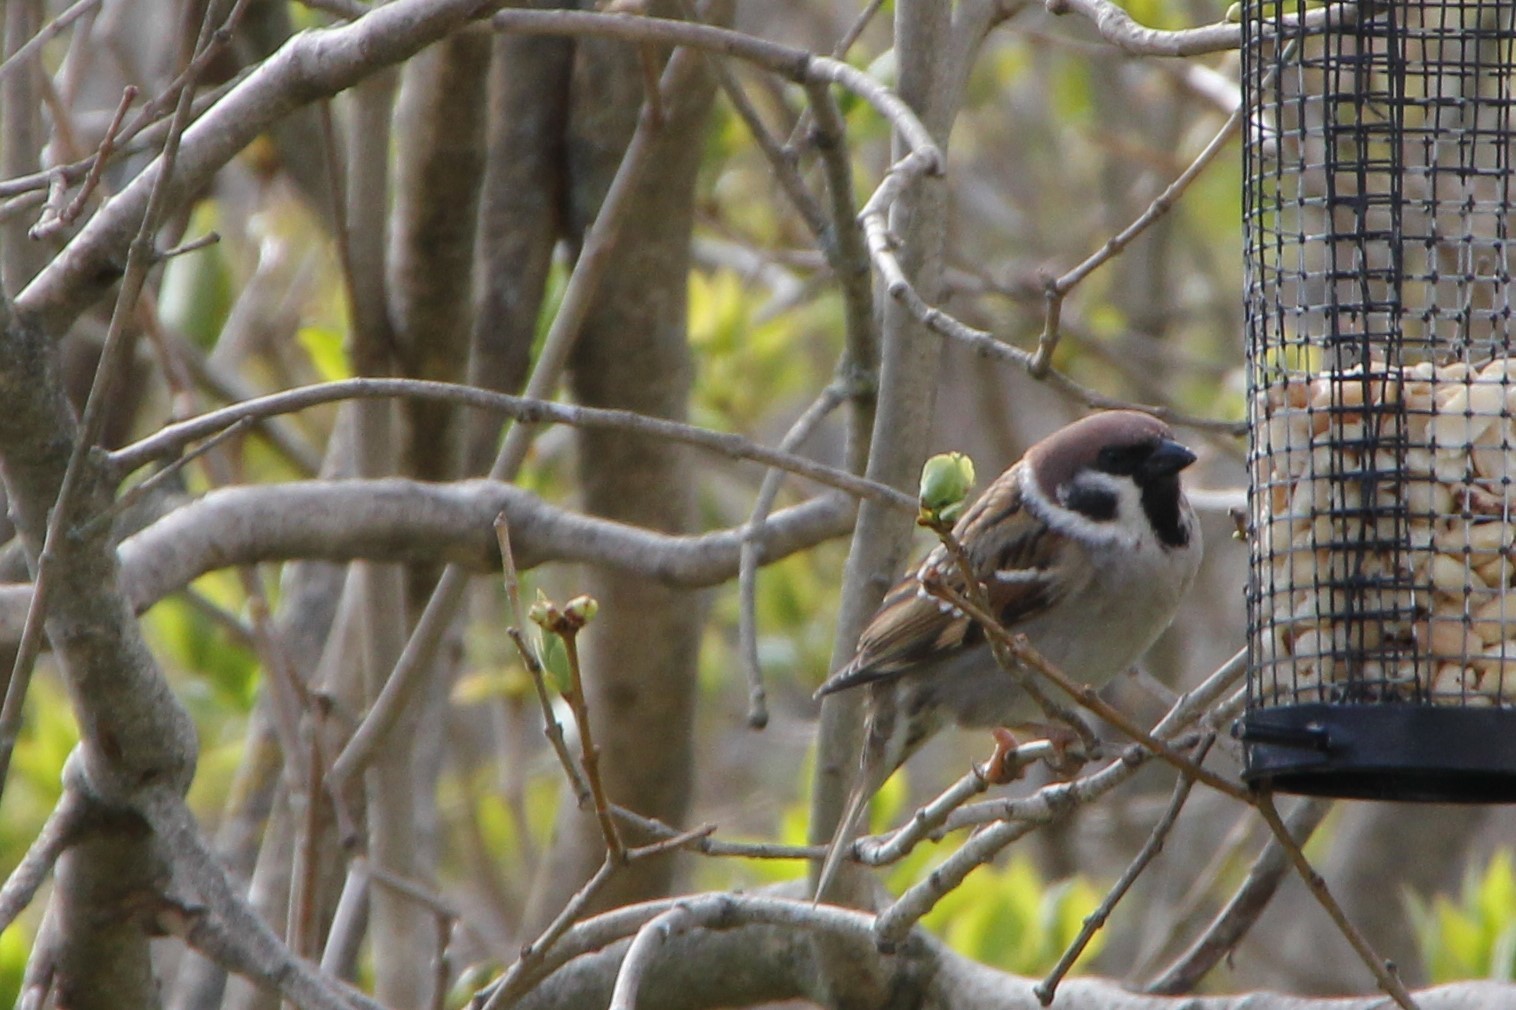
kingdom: Animalia
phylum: Chordata
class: Aves
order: Passeriformes
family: Passeridae
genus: Passer
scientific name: Passer montanus
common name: Eurasian tree sparrow
